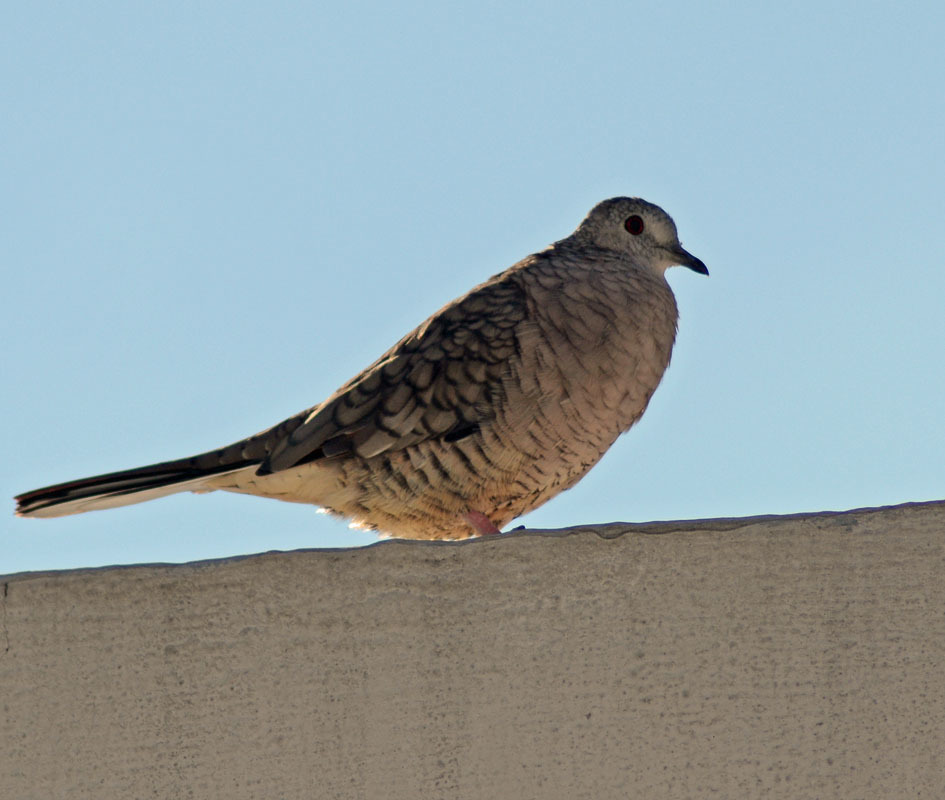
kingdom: Animalia
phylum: Chordata
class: Aves
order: Columbiformes
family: Columbidae
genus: Columbina
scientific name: Columbina inca
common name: Inca dove
